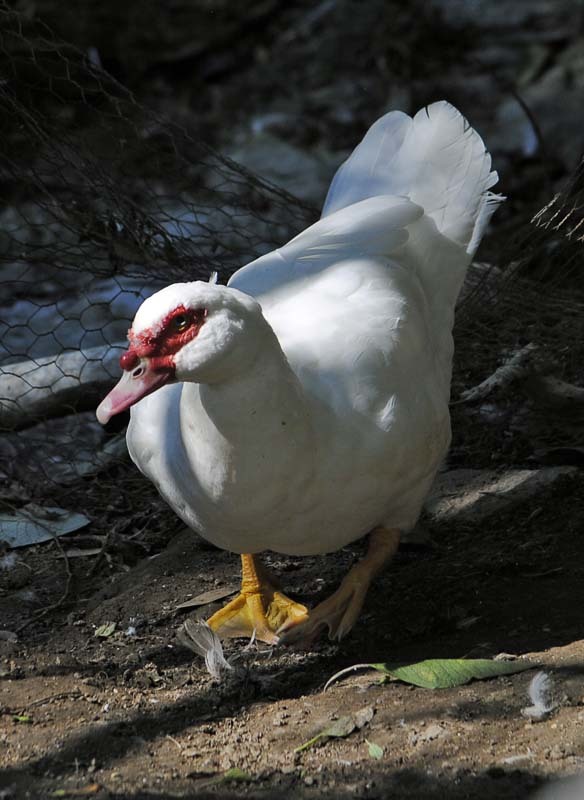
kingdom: Animalia
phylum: Chordata
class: Aves
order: Anseriformes
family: Anatidae
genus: Cairina
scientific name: Cairina moschata
